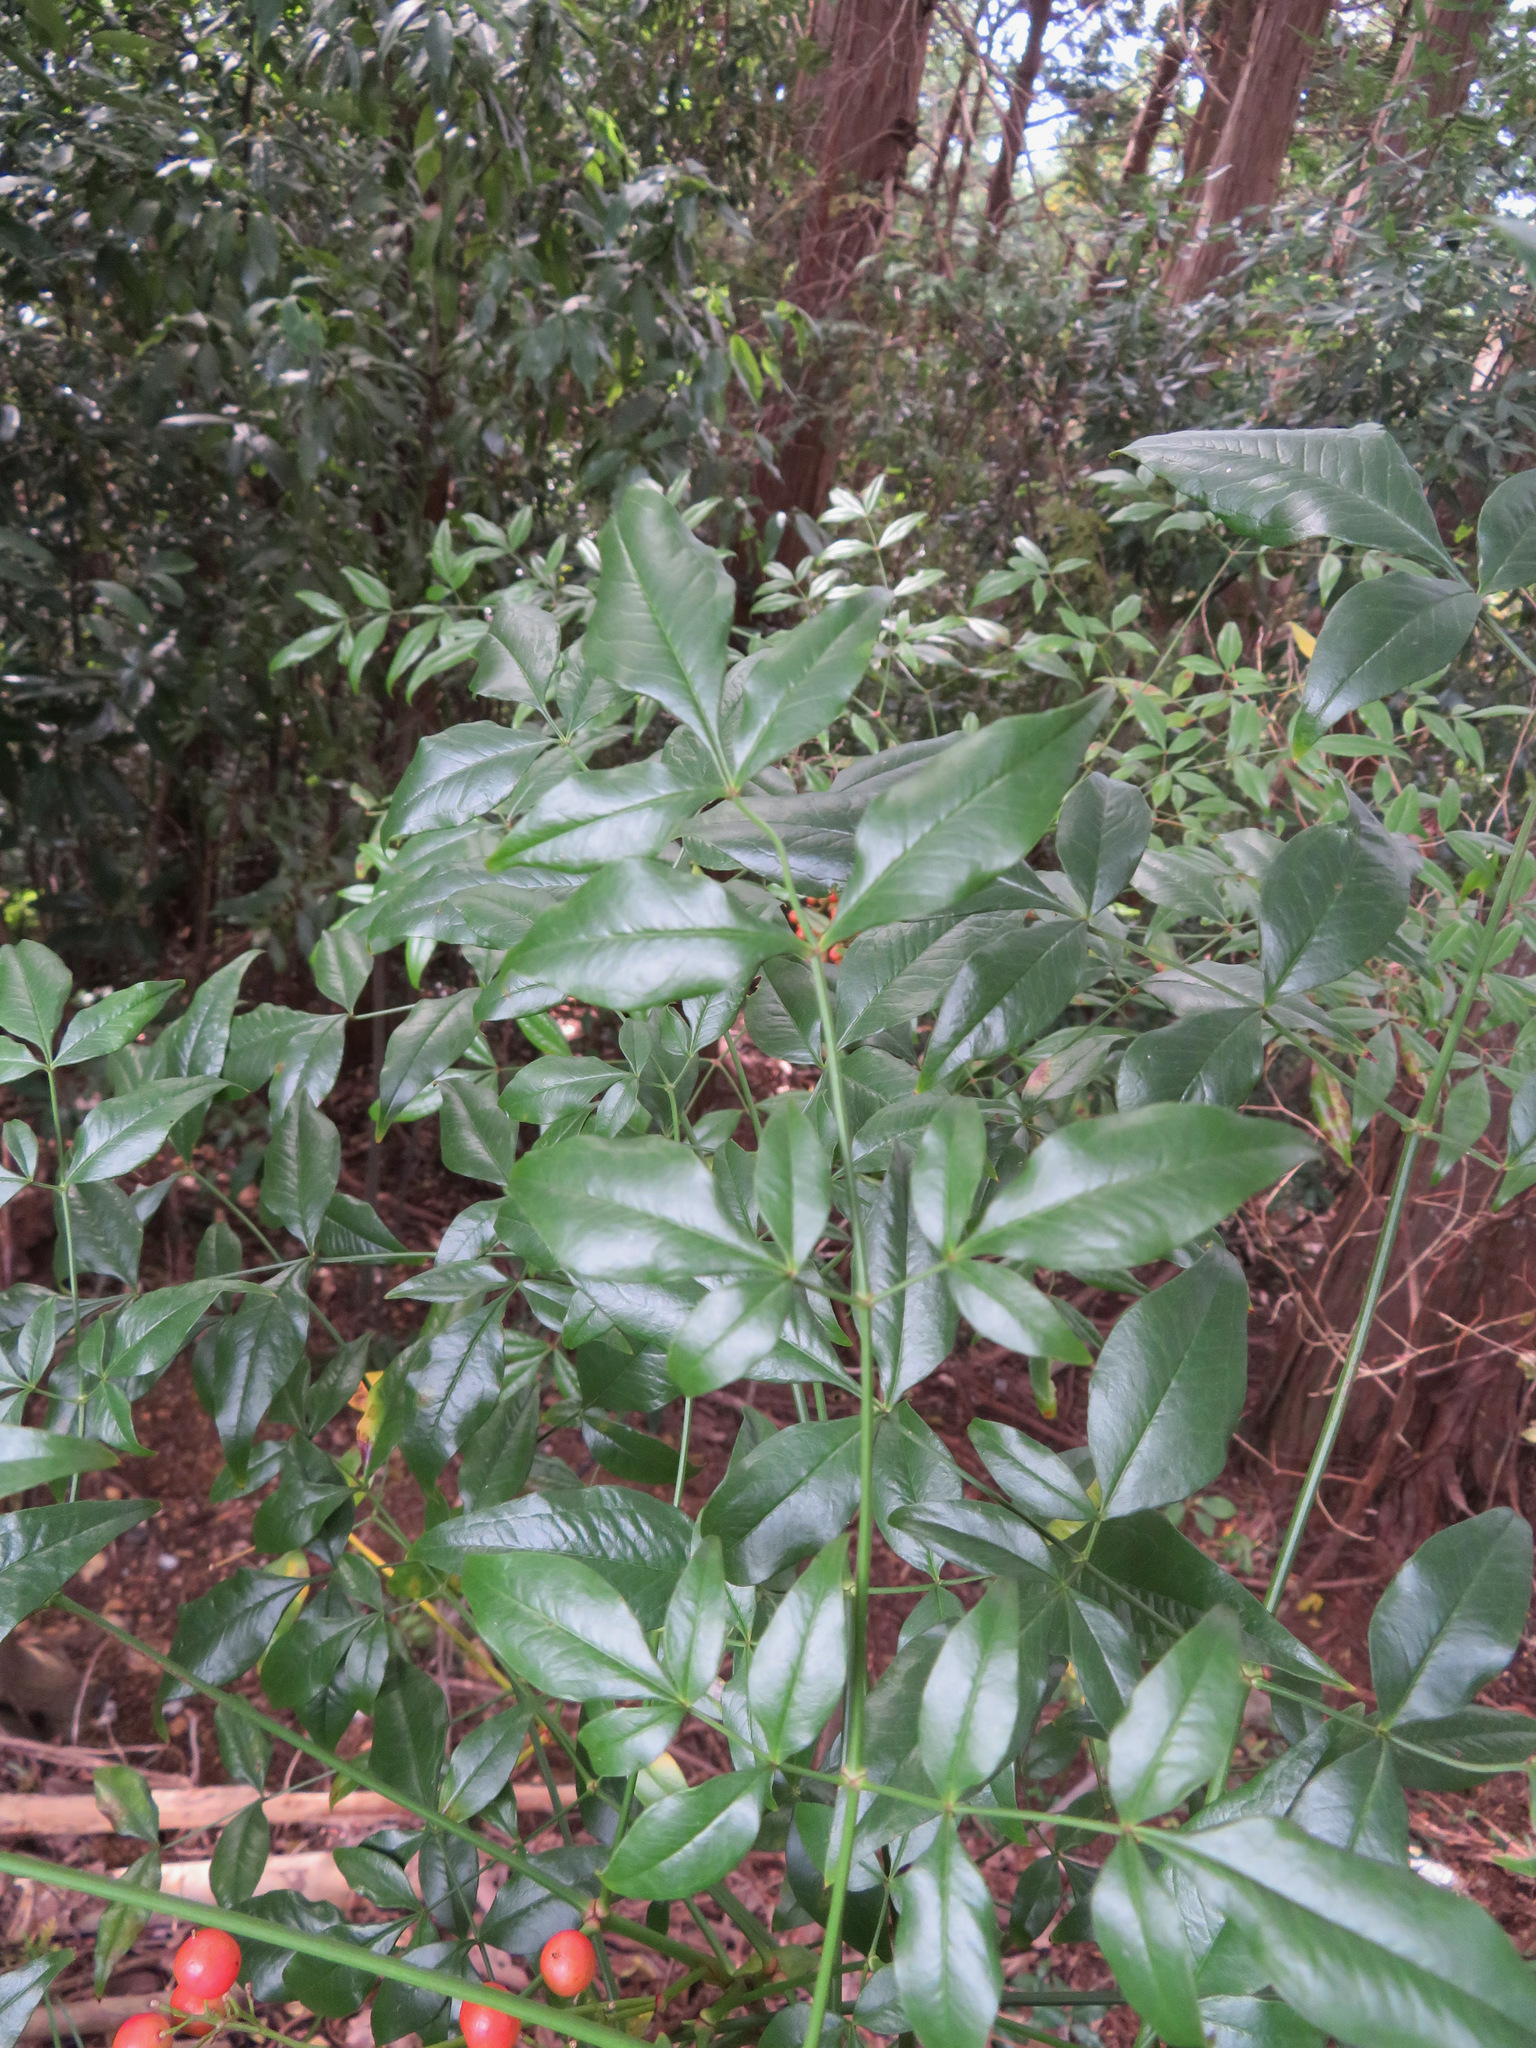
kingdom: Plantae
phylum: Tracheophyta
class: Magnoliopsida
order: Ranunculales
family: Berberidaceae
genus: Nandina
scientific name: Nandina domestica
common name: Sacred bamboo
